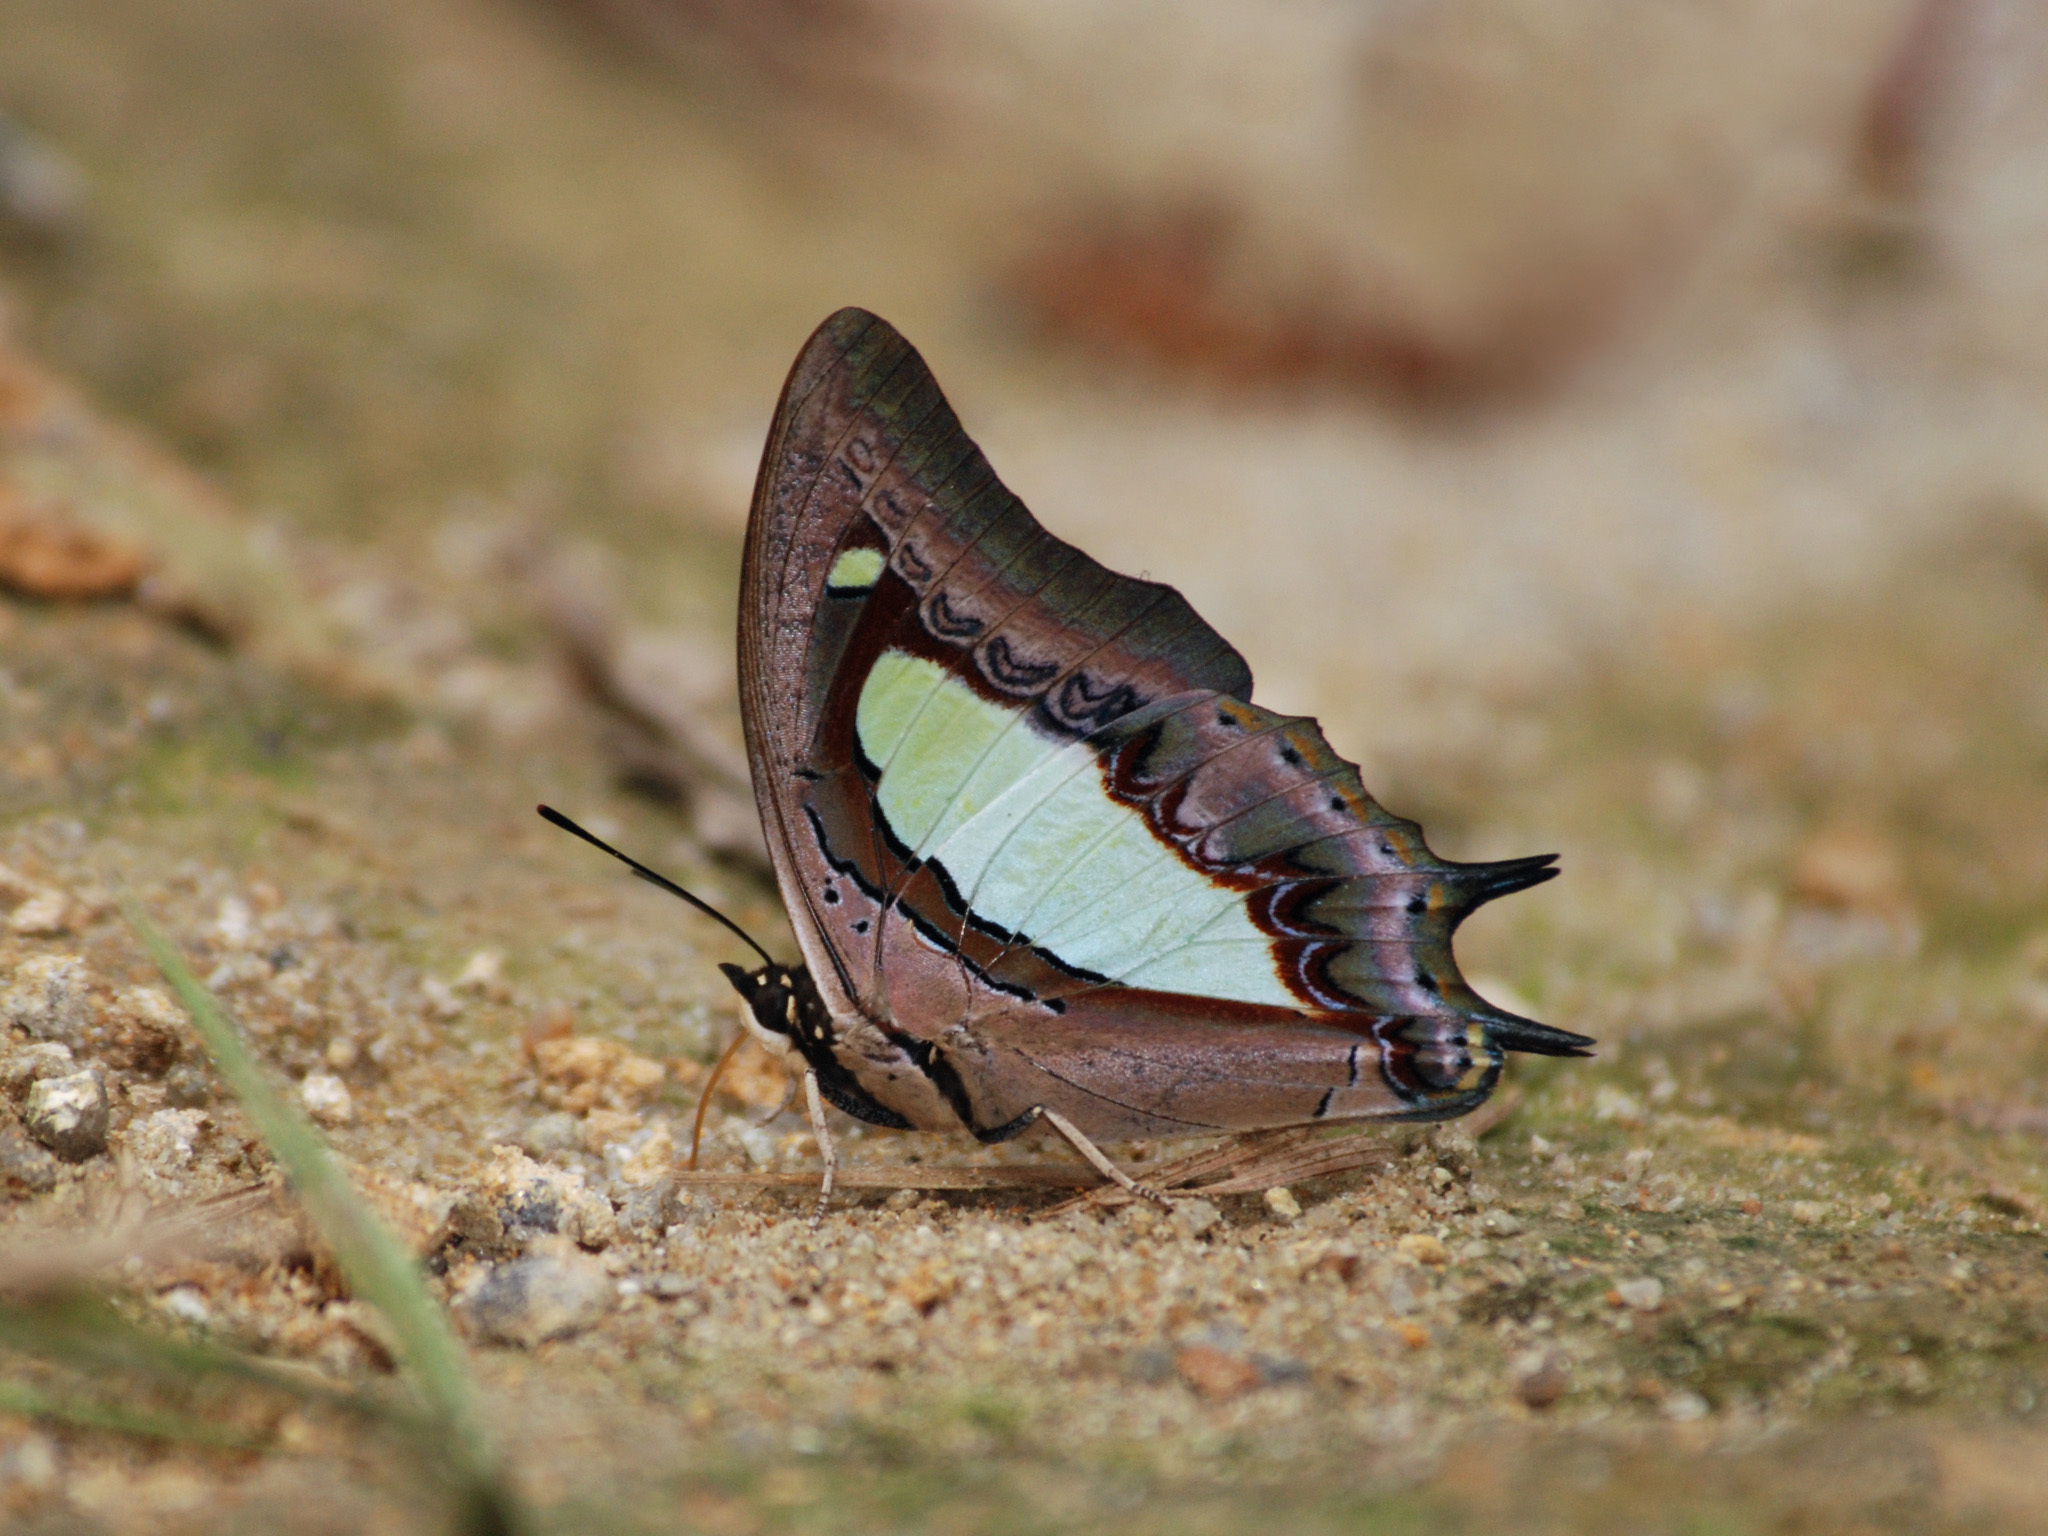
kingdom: Animalia
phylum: Arthropoda
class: Insecta
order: Lepidoptera
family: Nymphalidae
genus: Polyura
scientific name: Polyura athamas
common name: Common nawab
